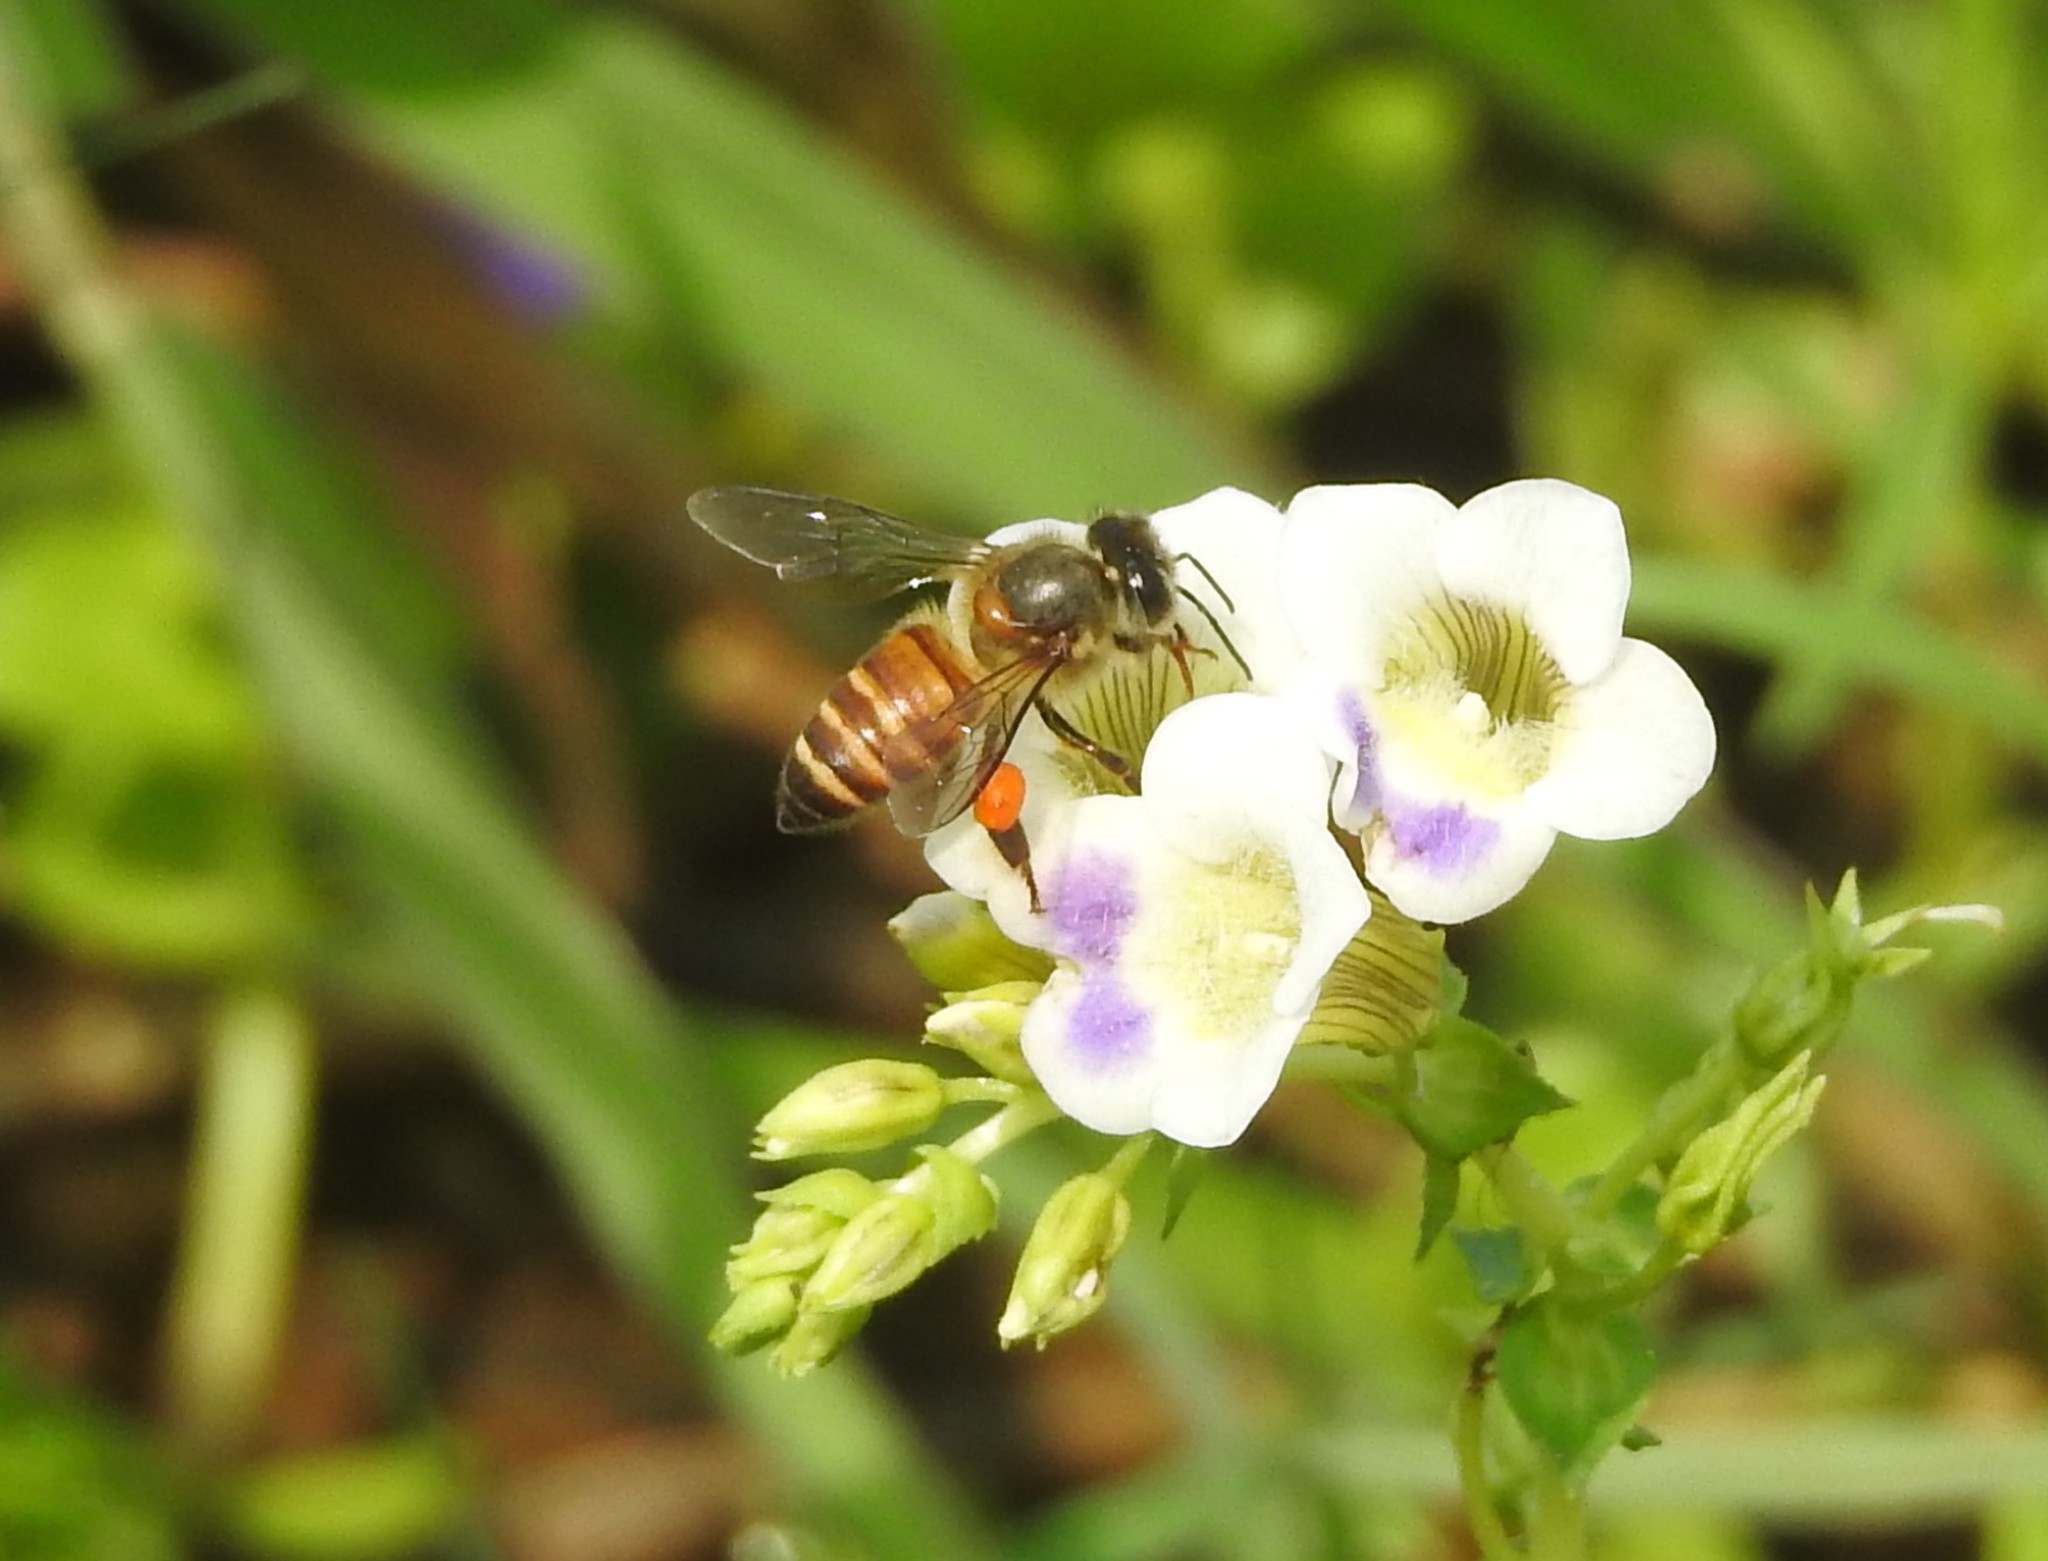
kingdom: Animalia
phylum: Arthropoda
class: Insecta
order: Hymenoptera
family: Apidae
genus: Apis
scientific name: Apis cerana
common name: Honey bee
